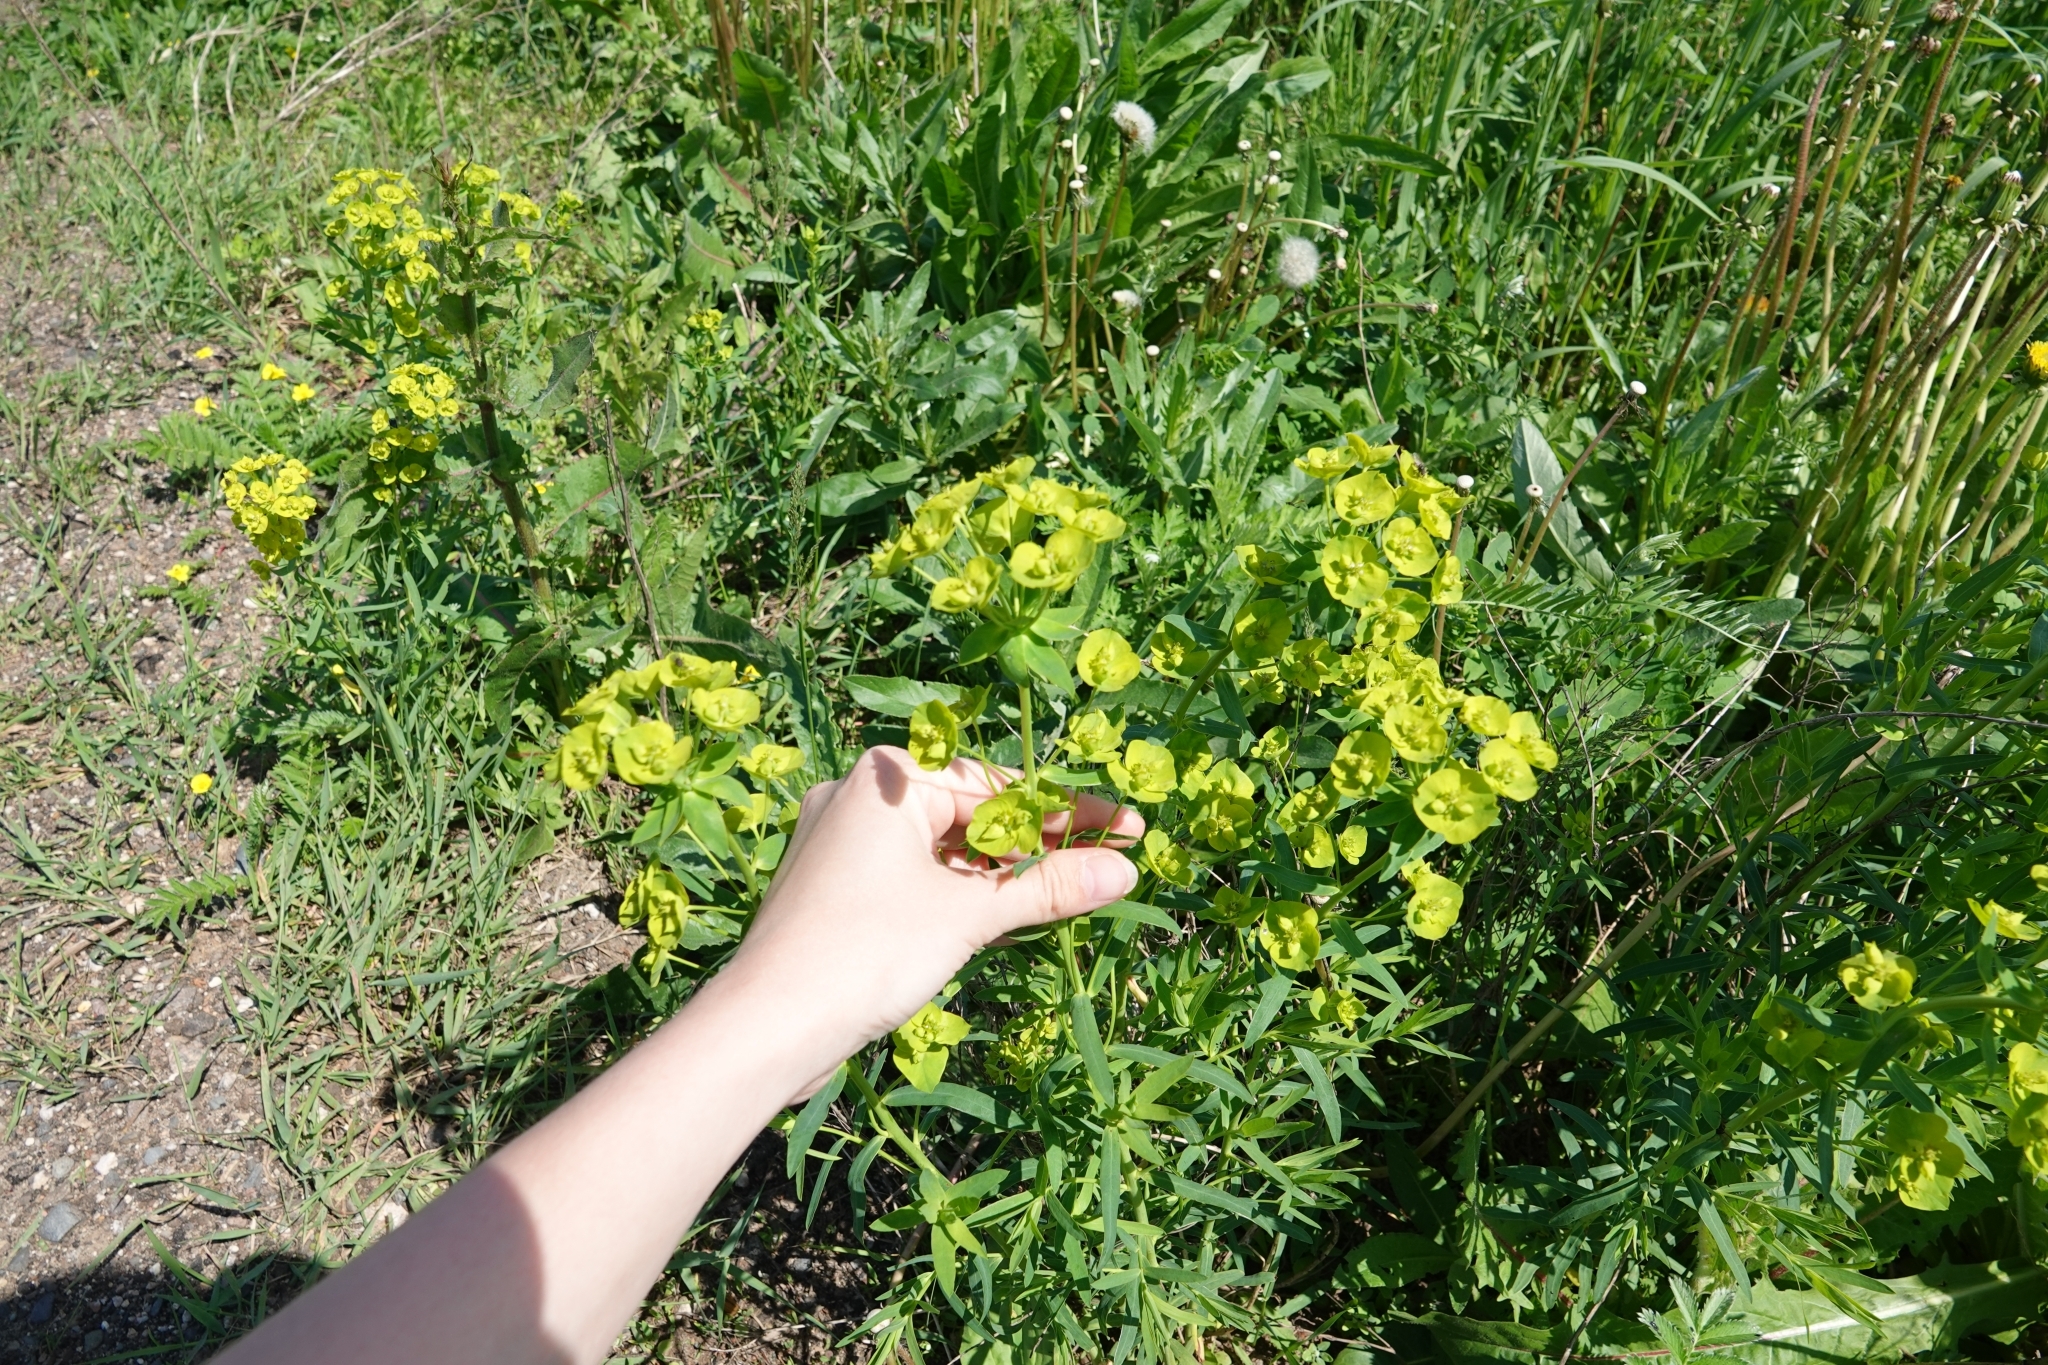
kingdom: Plantae
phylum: Tracheophyta
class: Magnoliopsida
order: Malpighiales
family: Euphorbiaceae
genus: Euphorbia
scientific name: Euphorbia virgata
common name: Leafy spurge
